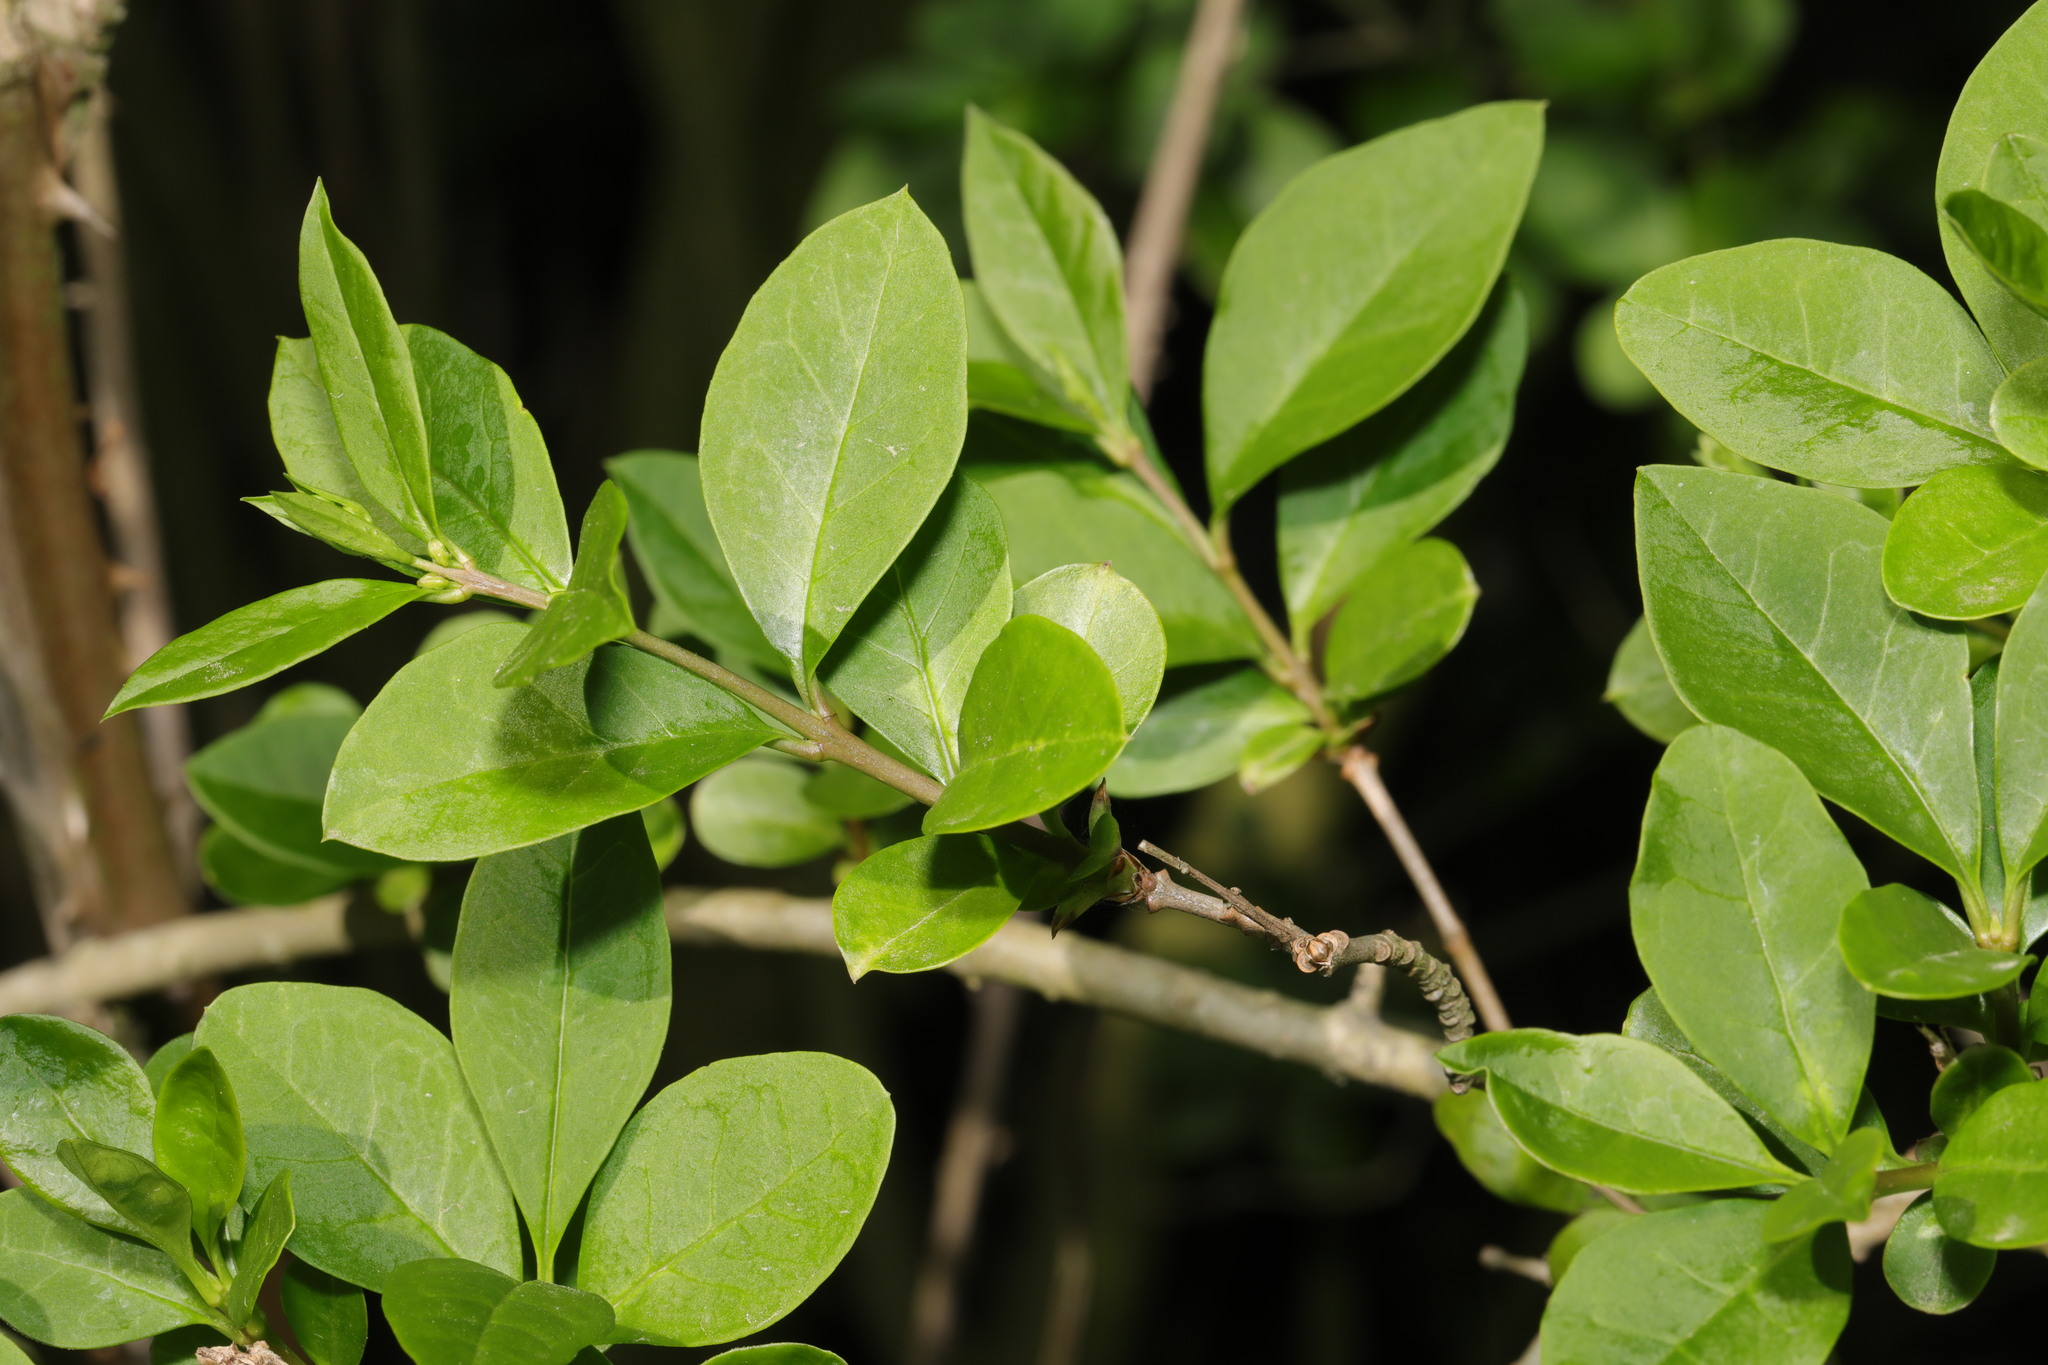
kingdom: Plantae
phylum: Tracheophyta
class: Magnoliopsida
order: Lamiales
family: Oleaceae
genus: Ligustrum
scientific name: Ligustrum ovalifolium
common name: California privet
